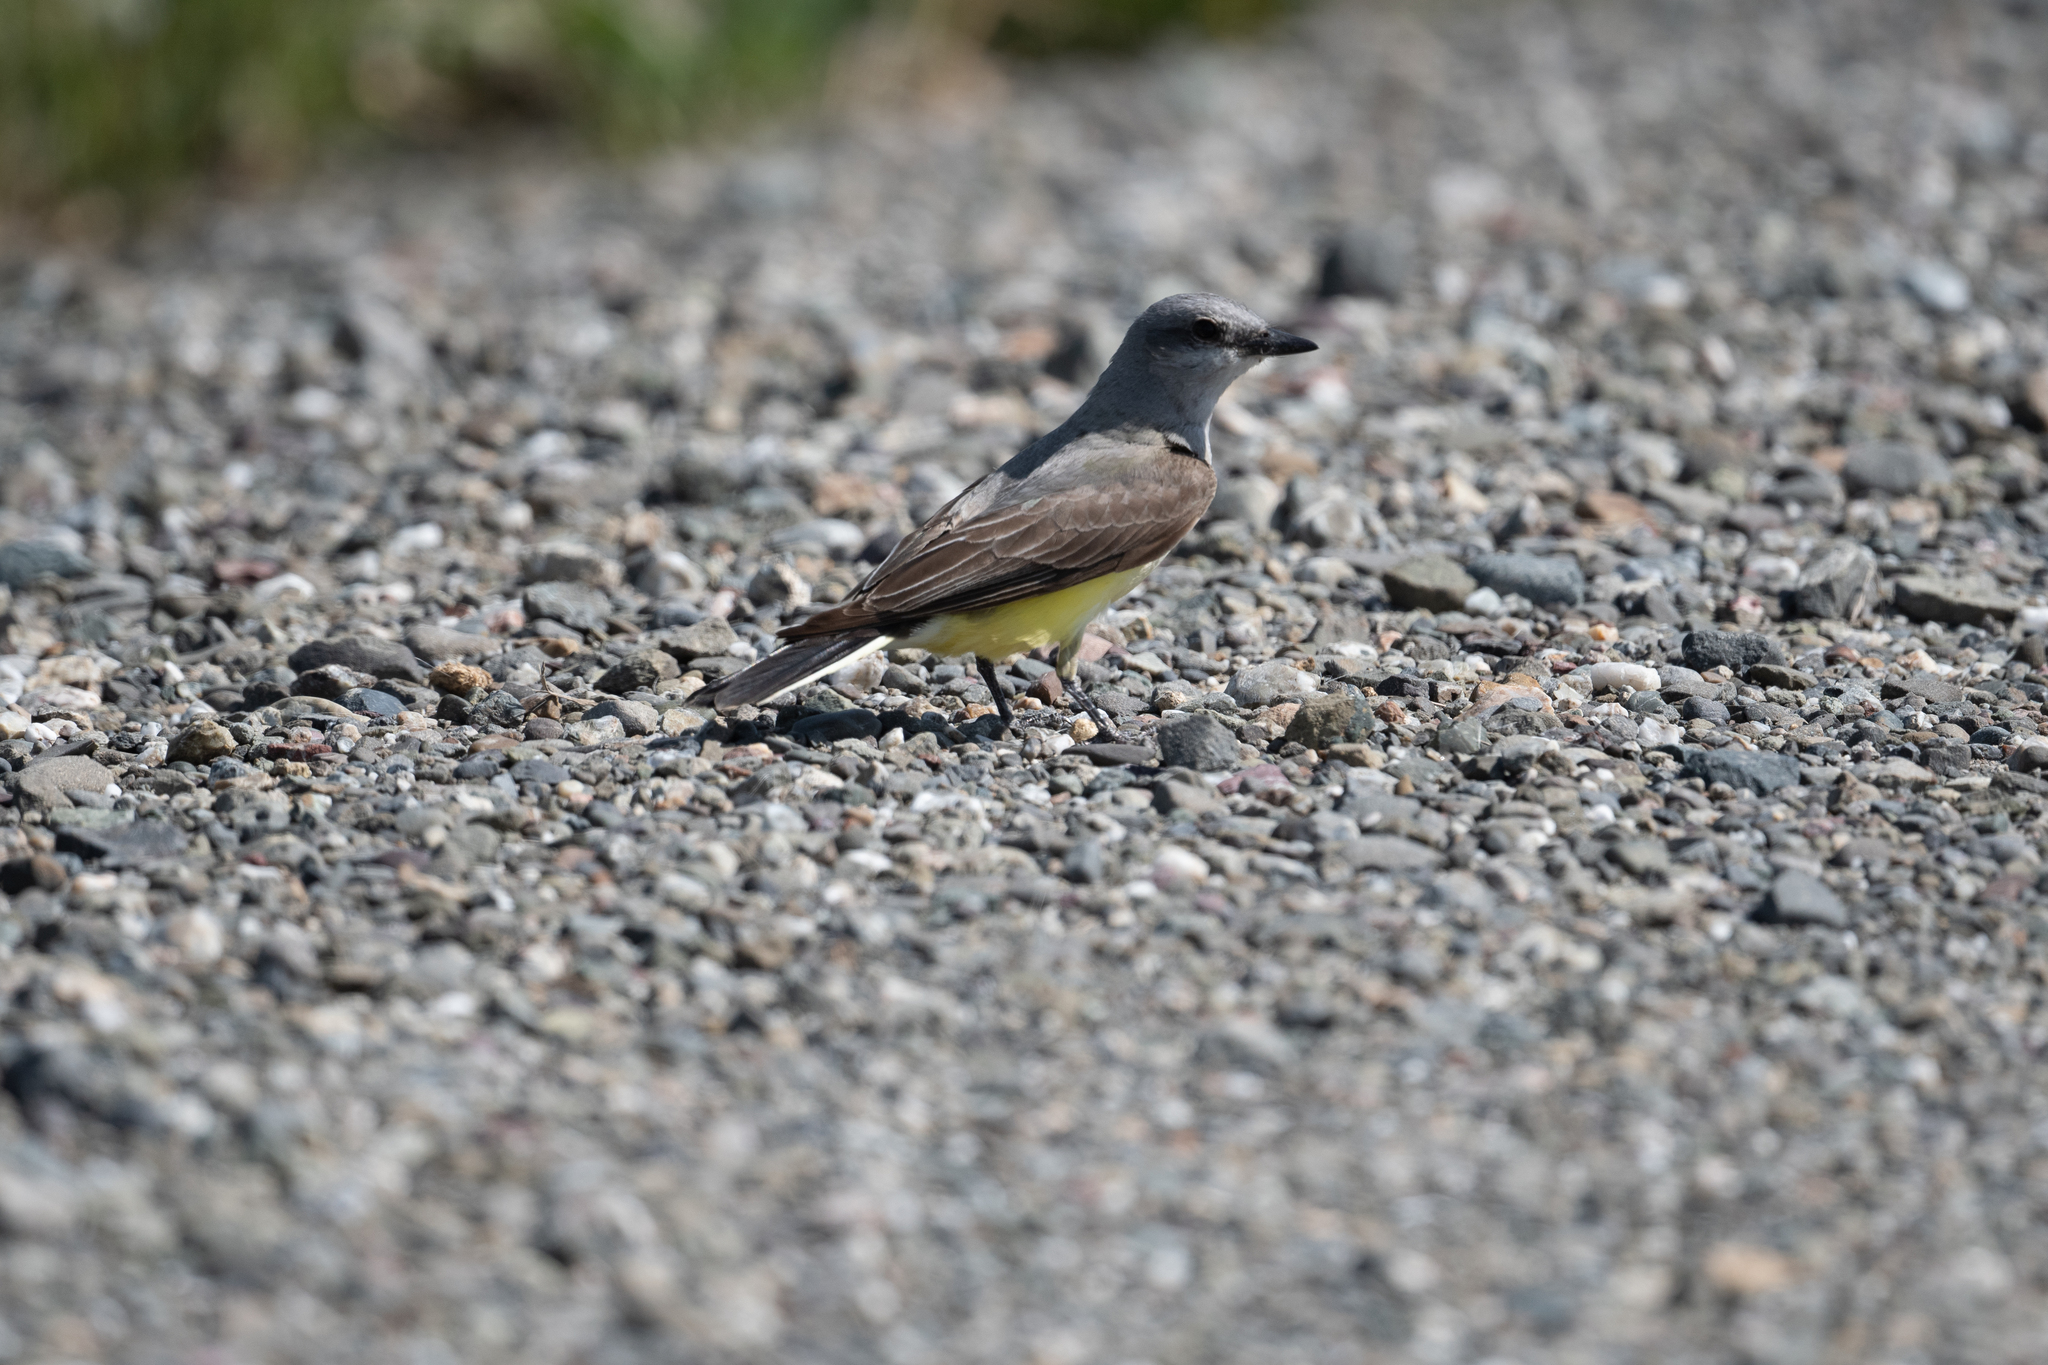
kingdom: Animalia
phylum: Chordata
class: Aves
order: Passeriformes
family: Tyrannidae
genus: Tyrannus
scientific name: Tyrannus verticalis
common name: Western kingbird
